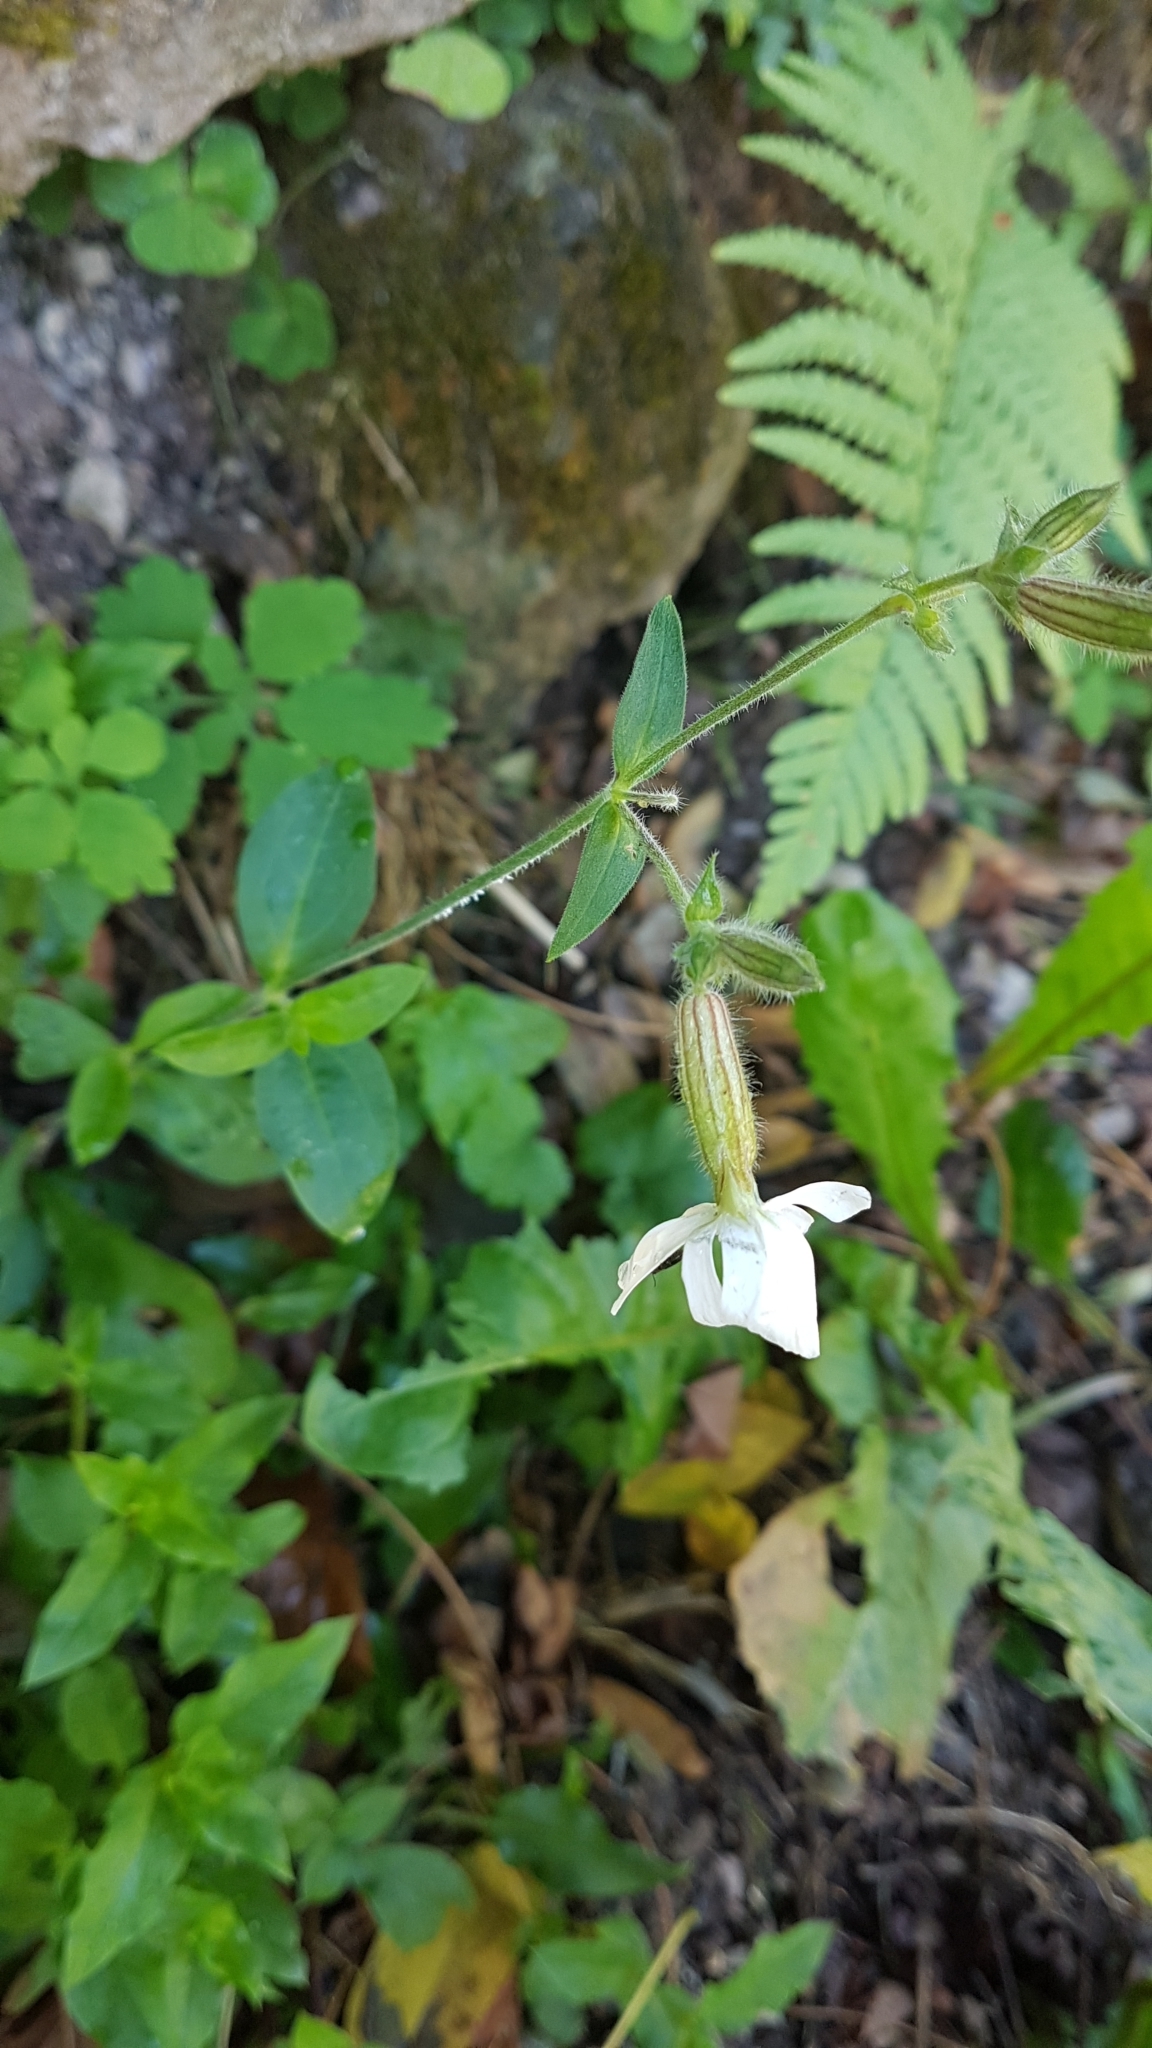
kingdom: Plantae
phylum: Tracheophyta
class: Magnoliopsida
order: Caryophyllales
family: Caryophyllaceae
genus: Silene
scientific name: Silene latifolia
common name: White campion
